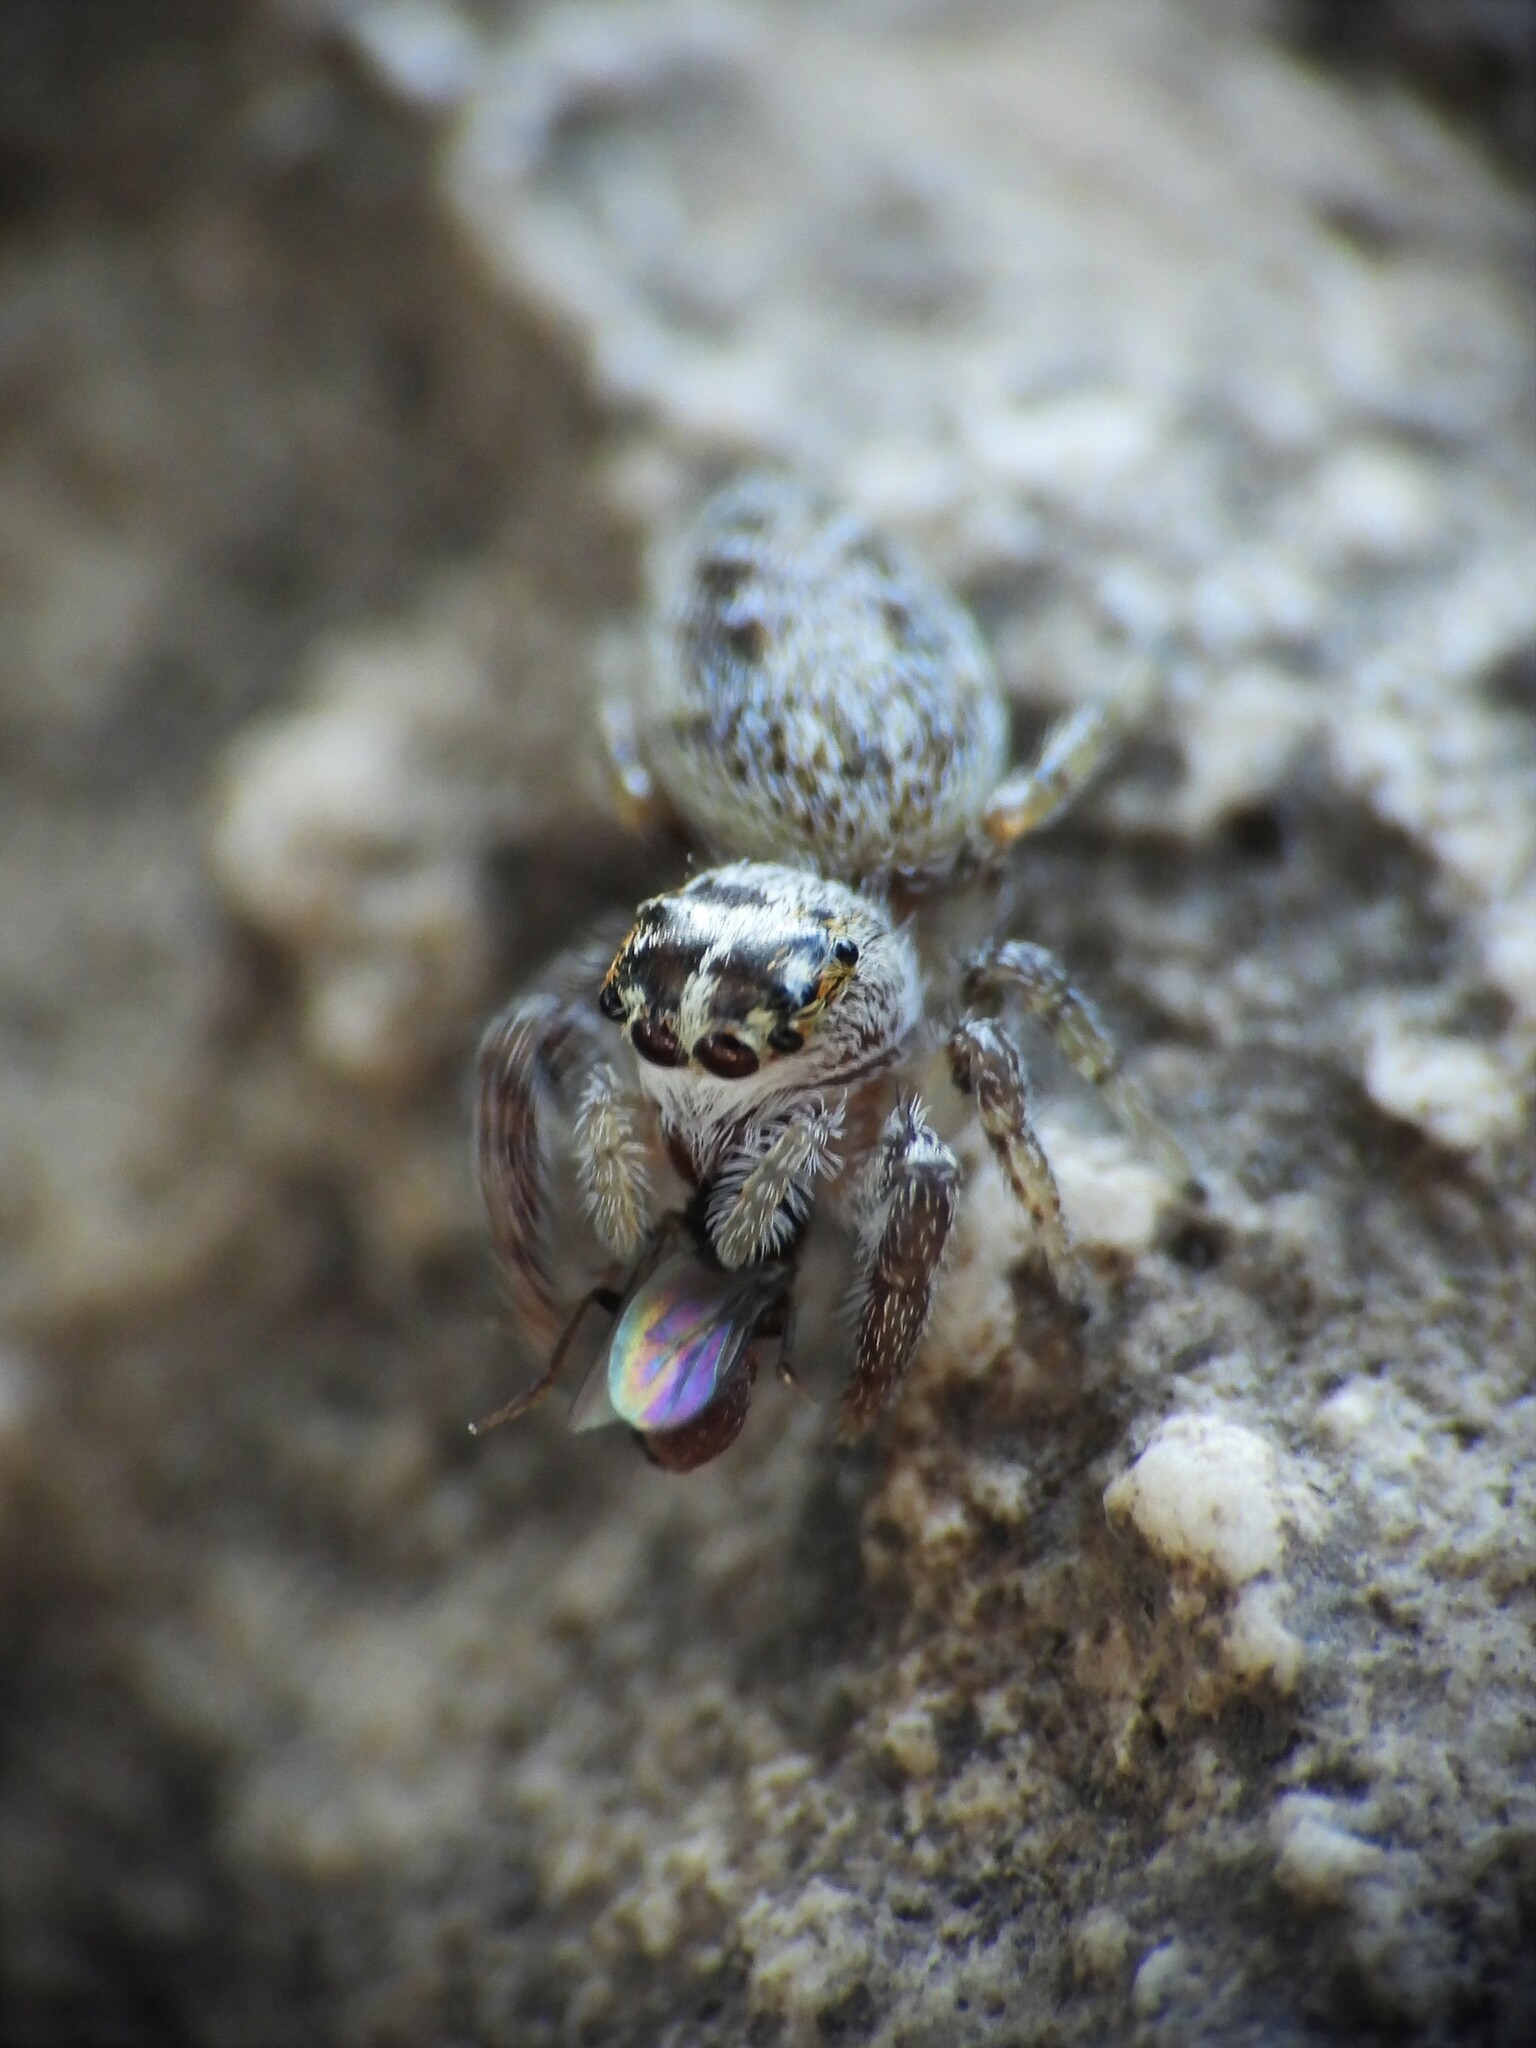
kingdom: Animalia
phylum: Arthropoda
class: Arachnida
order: Araneae
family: Salticidae
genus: Macaroeris
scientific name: Macaroeris nidicolens
